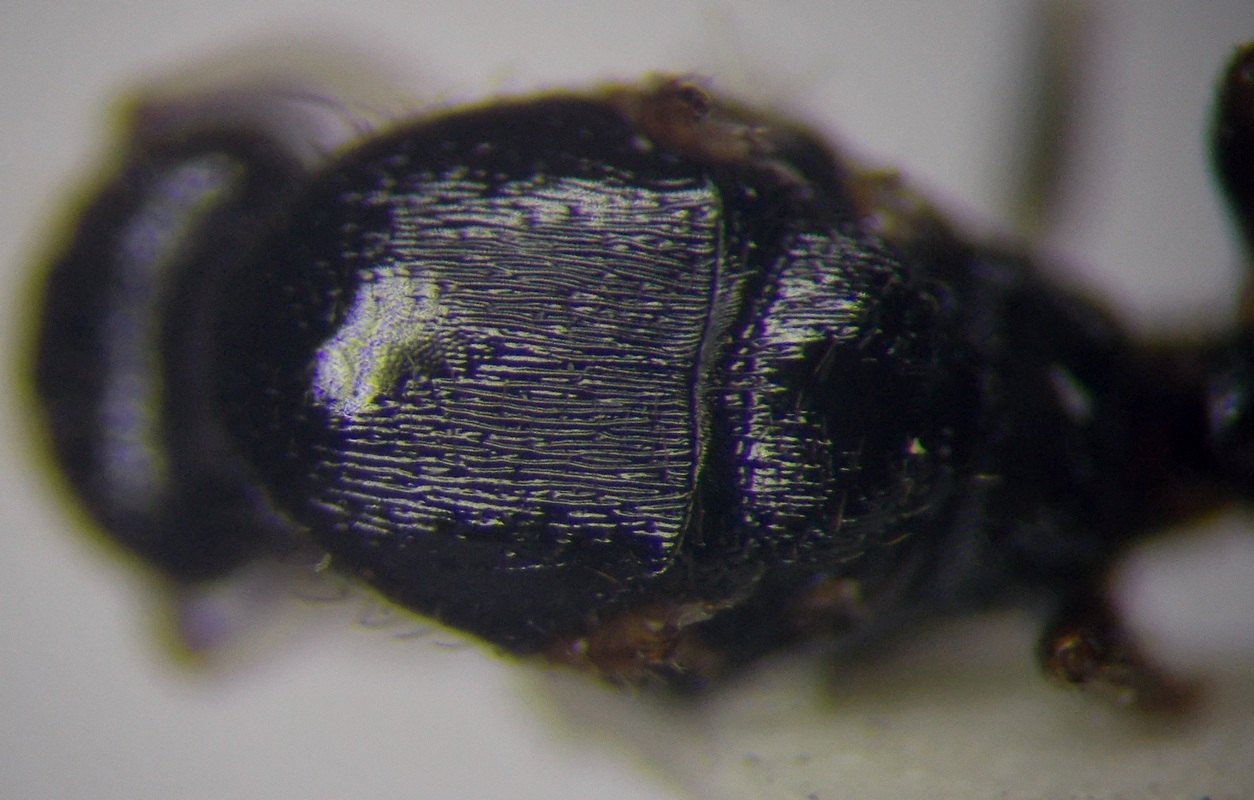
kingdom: Animalia
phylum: Arthropoda
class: Insecta
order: Hymenoptera
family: Formicidae
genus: Tetramorium
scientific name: Tetramorium caespitum
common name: Pavement ant
